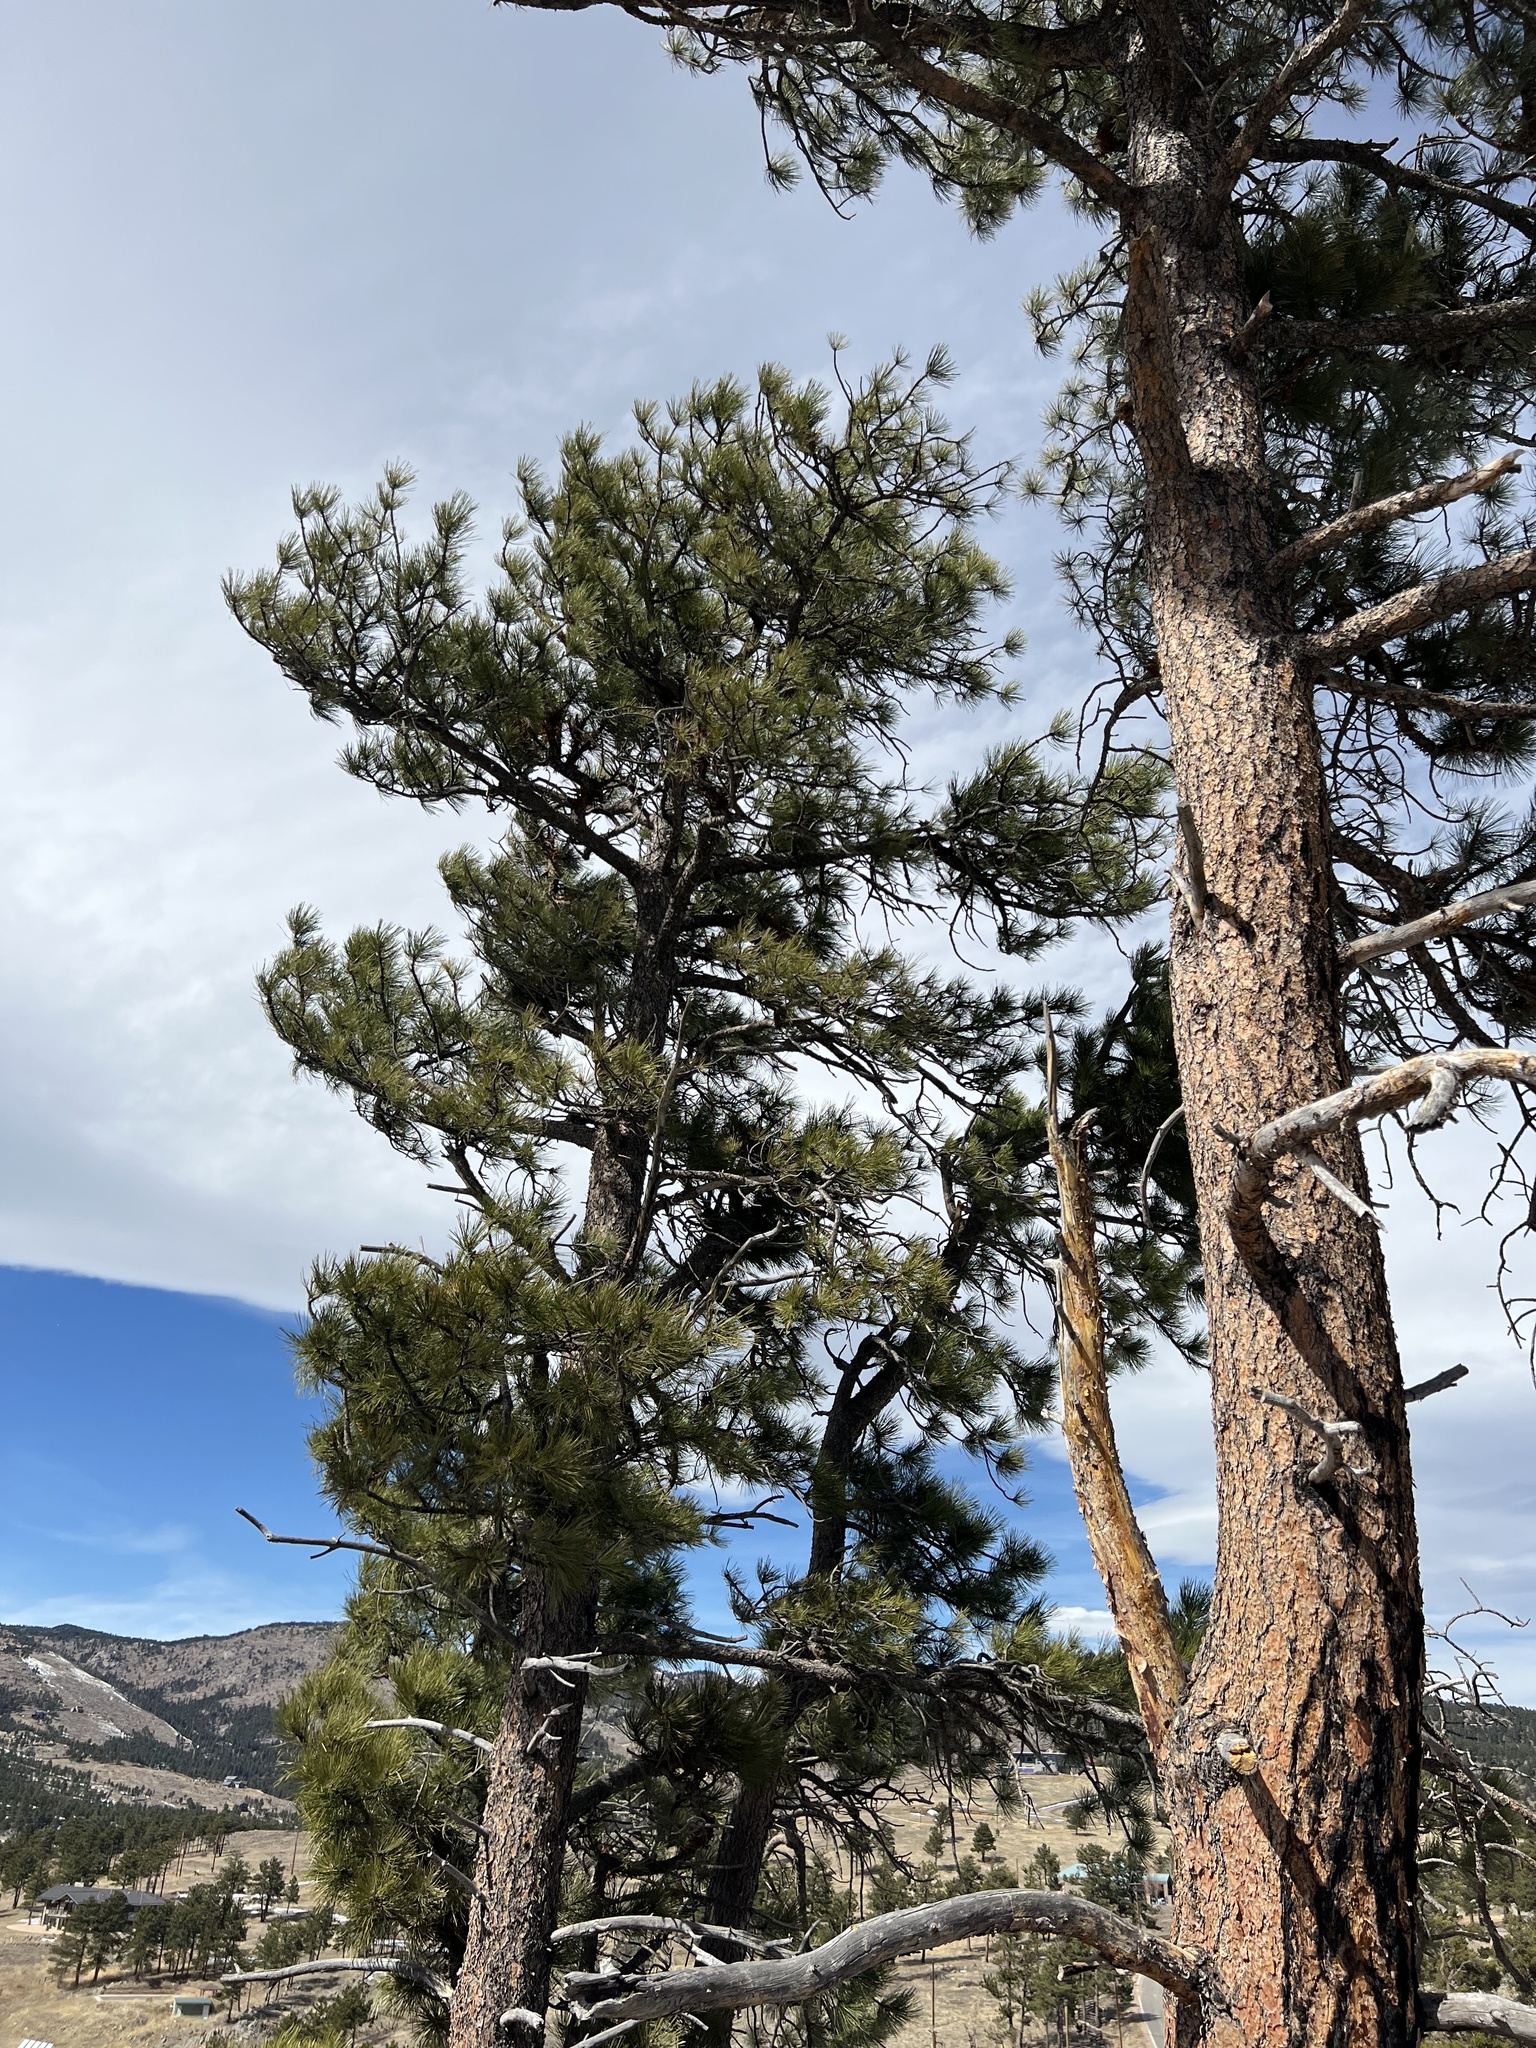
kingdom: Plantae
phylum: Tracheophyta
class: Pinopsida
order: Pinales
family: Pinaceae
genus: Pinus
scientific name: Pinus ponderosa
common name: Western yellow-pine
